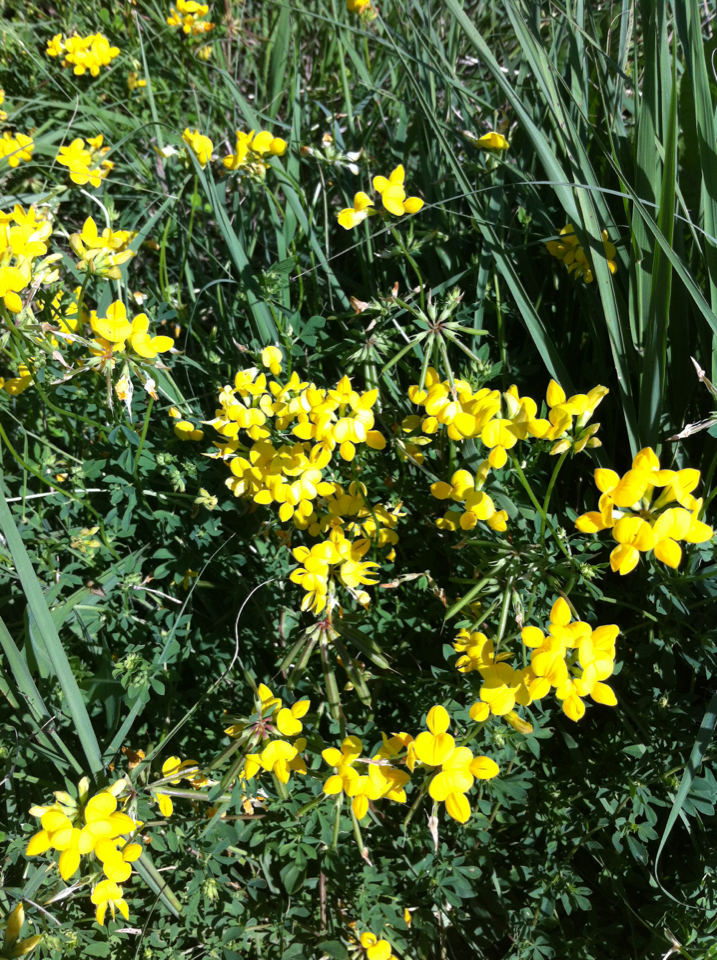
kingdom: Plantae
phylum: Tracheophyta
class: Magnoliopsida
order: Fabales
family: Fabaceae
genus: Lotus
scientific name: Lotus corniculatus
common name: Common bird's-foot-trefoil
